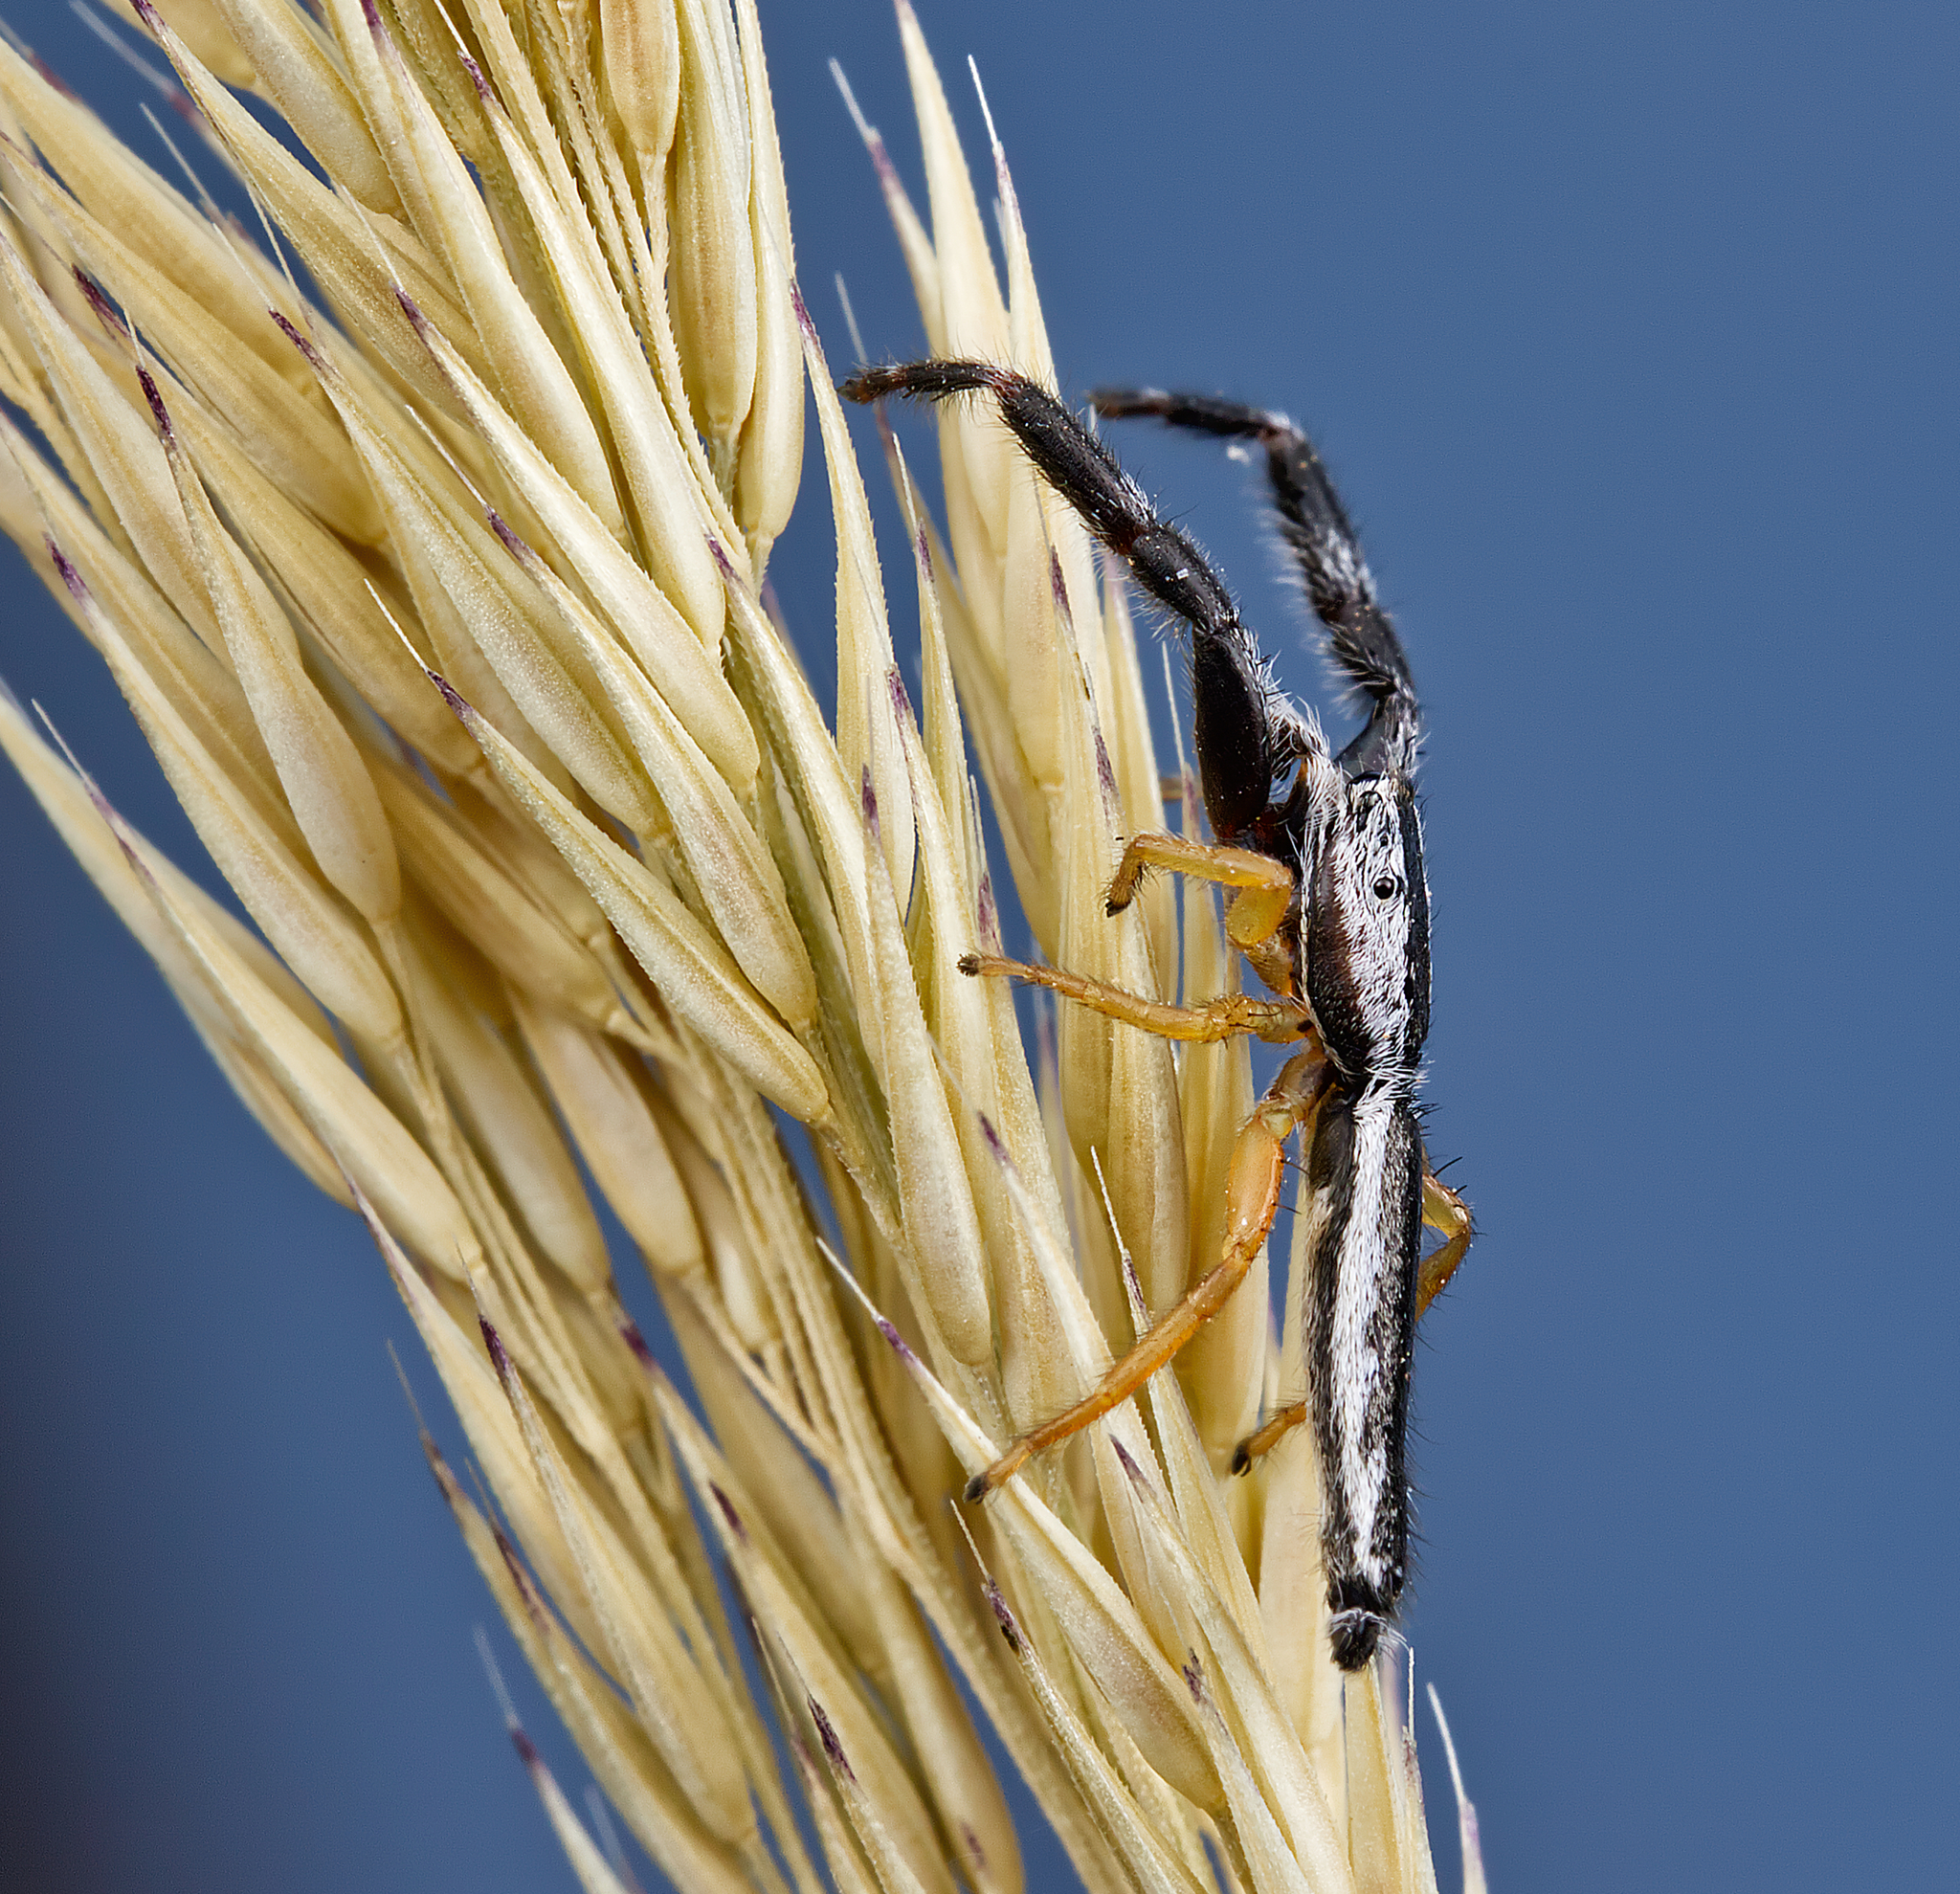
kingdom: Animalia
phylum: Arthropoda
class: Arachnida
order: Araneae
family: Salticidae
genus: Marpissa
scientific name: Marpissa pikei
